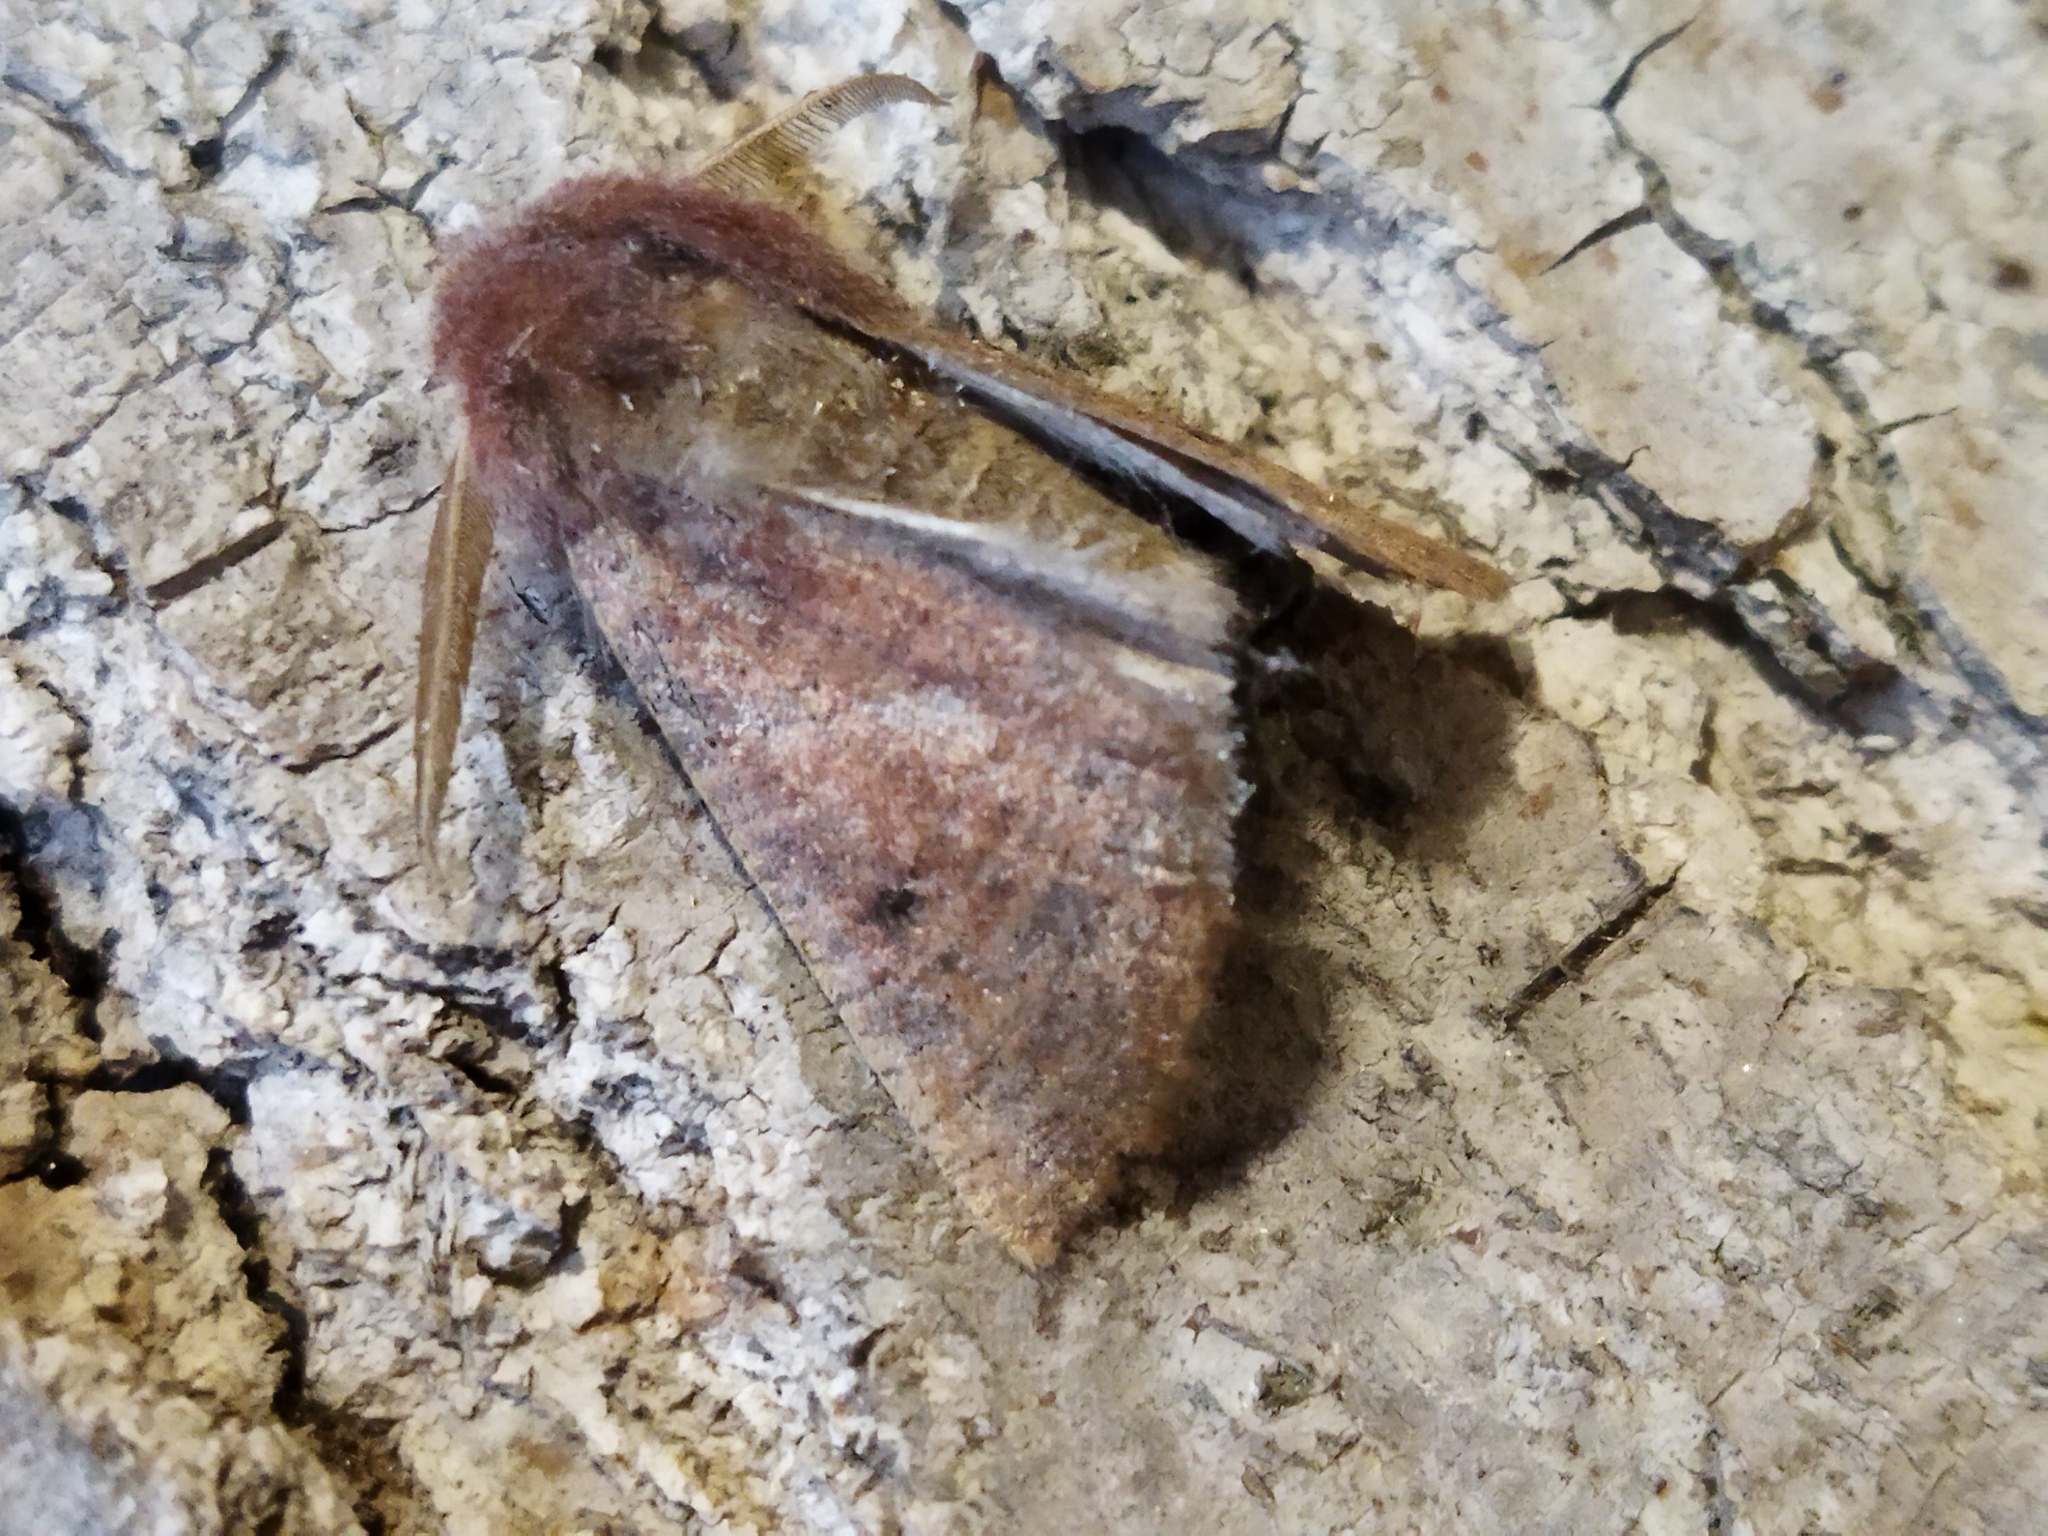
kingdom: Animalia
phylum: Arthropoda
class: Insecta
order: Lepidoptera
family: Geometridae
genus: Dasycorsa
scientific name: Dasycorsa modesta
